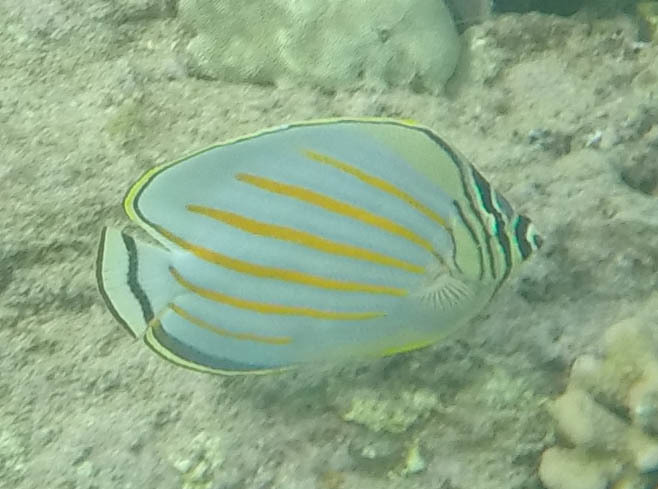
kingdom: Animalia
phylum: Chordata
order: Perciformes
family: Chaetodontidae
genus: Chaetodon
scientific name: Chaetodon ornatissimus
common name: Ornate butterflyfish
